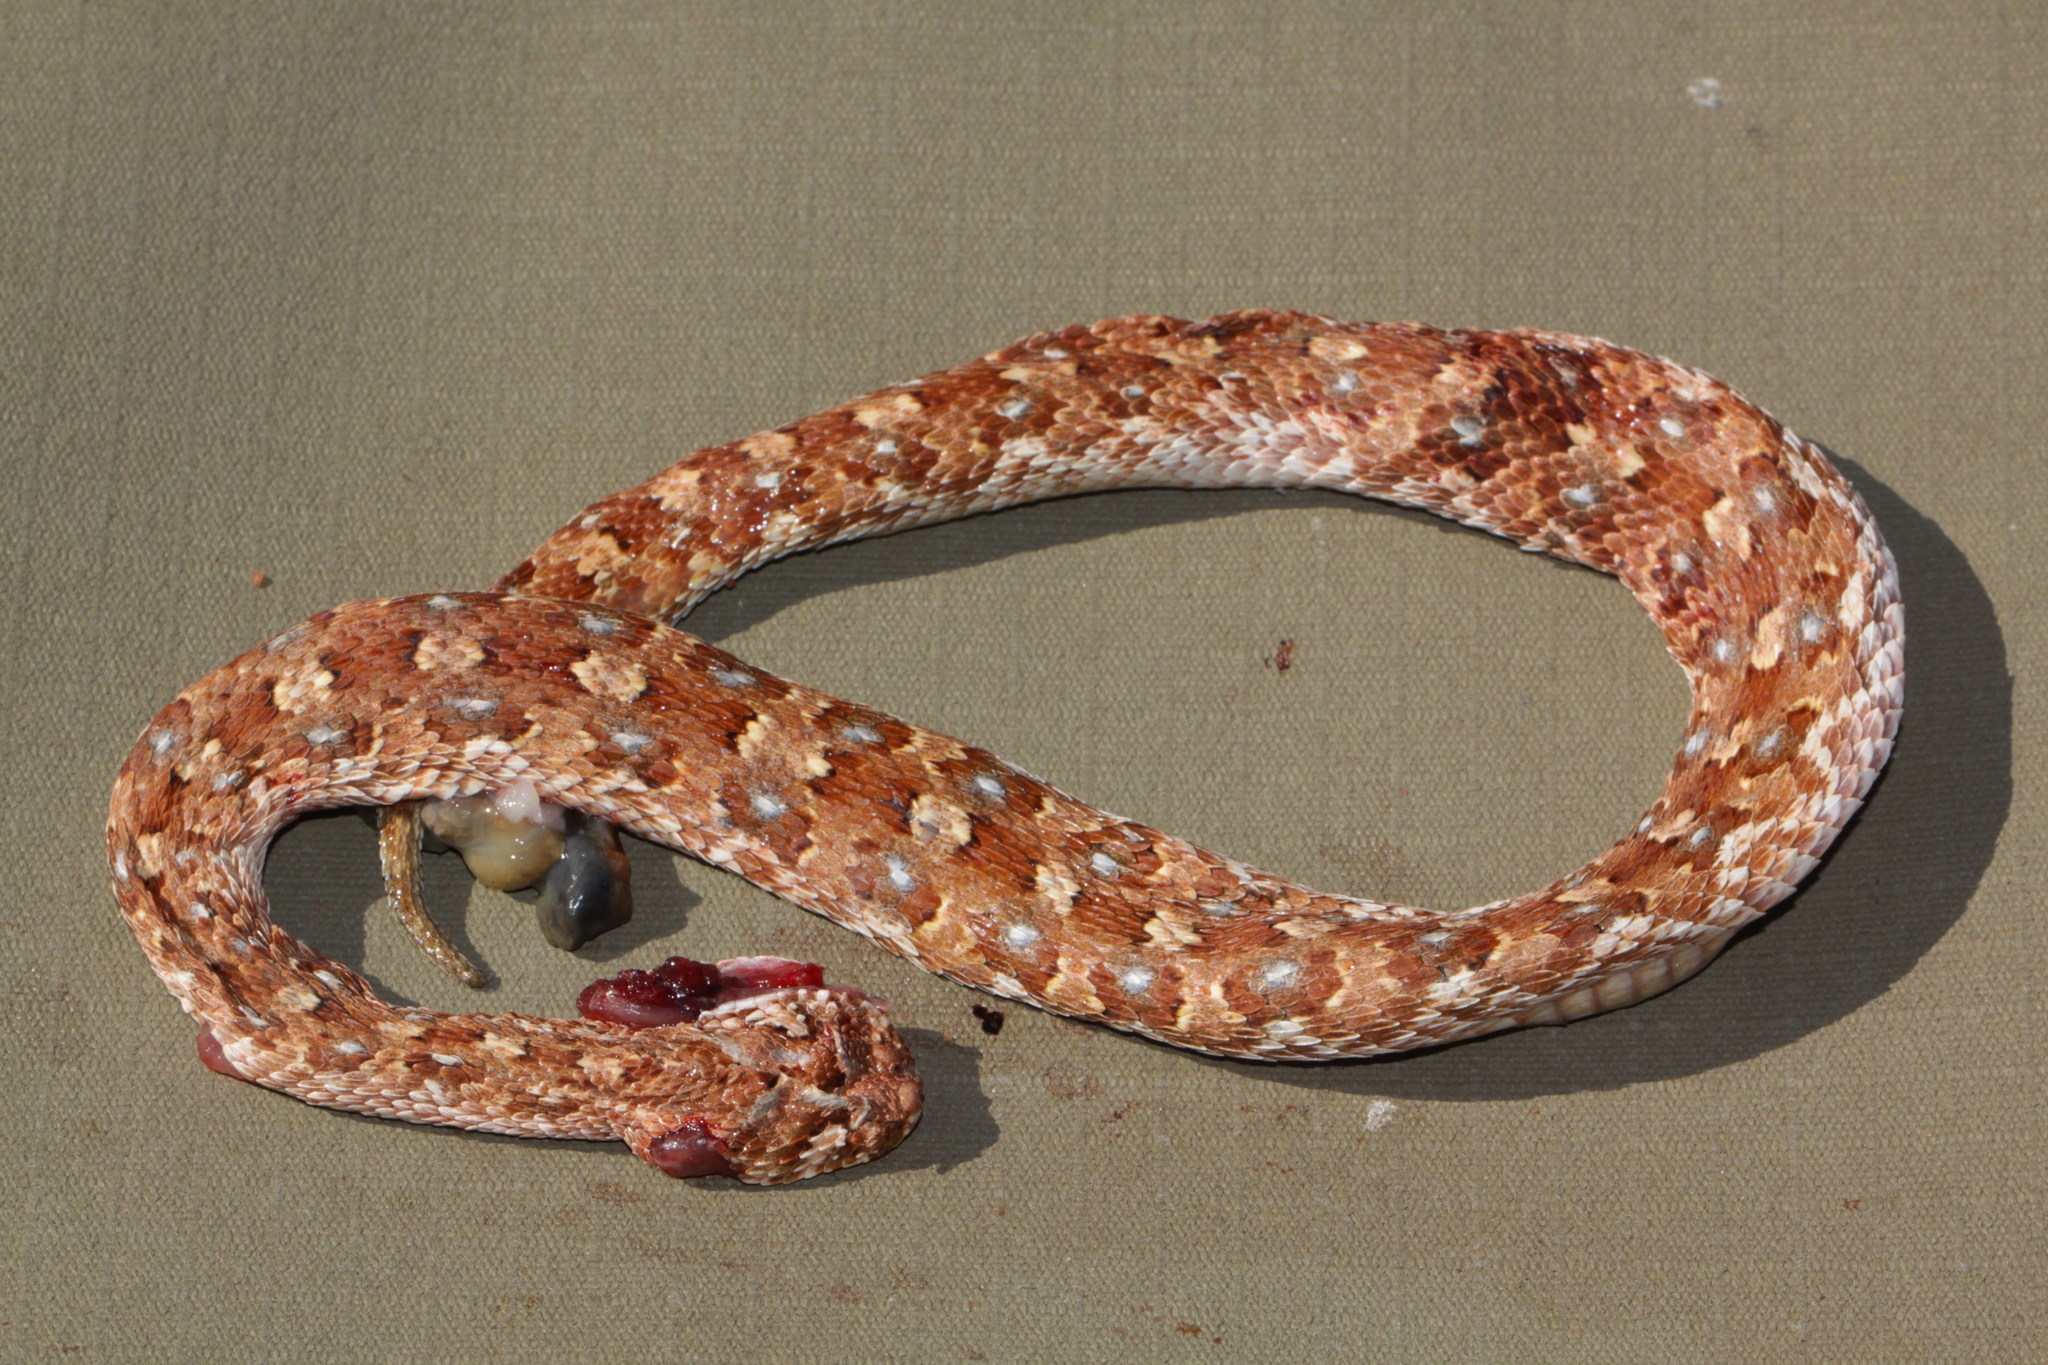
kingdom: Animalia
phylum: Chordata
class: Squamata
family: Viperidae
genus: Bitis
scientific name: Bitis caudalis
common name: Horned adder
